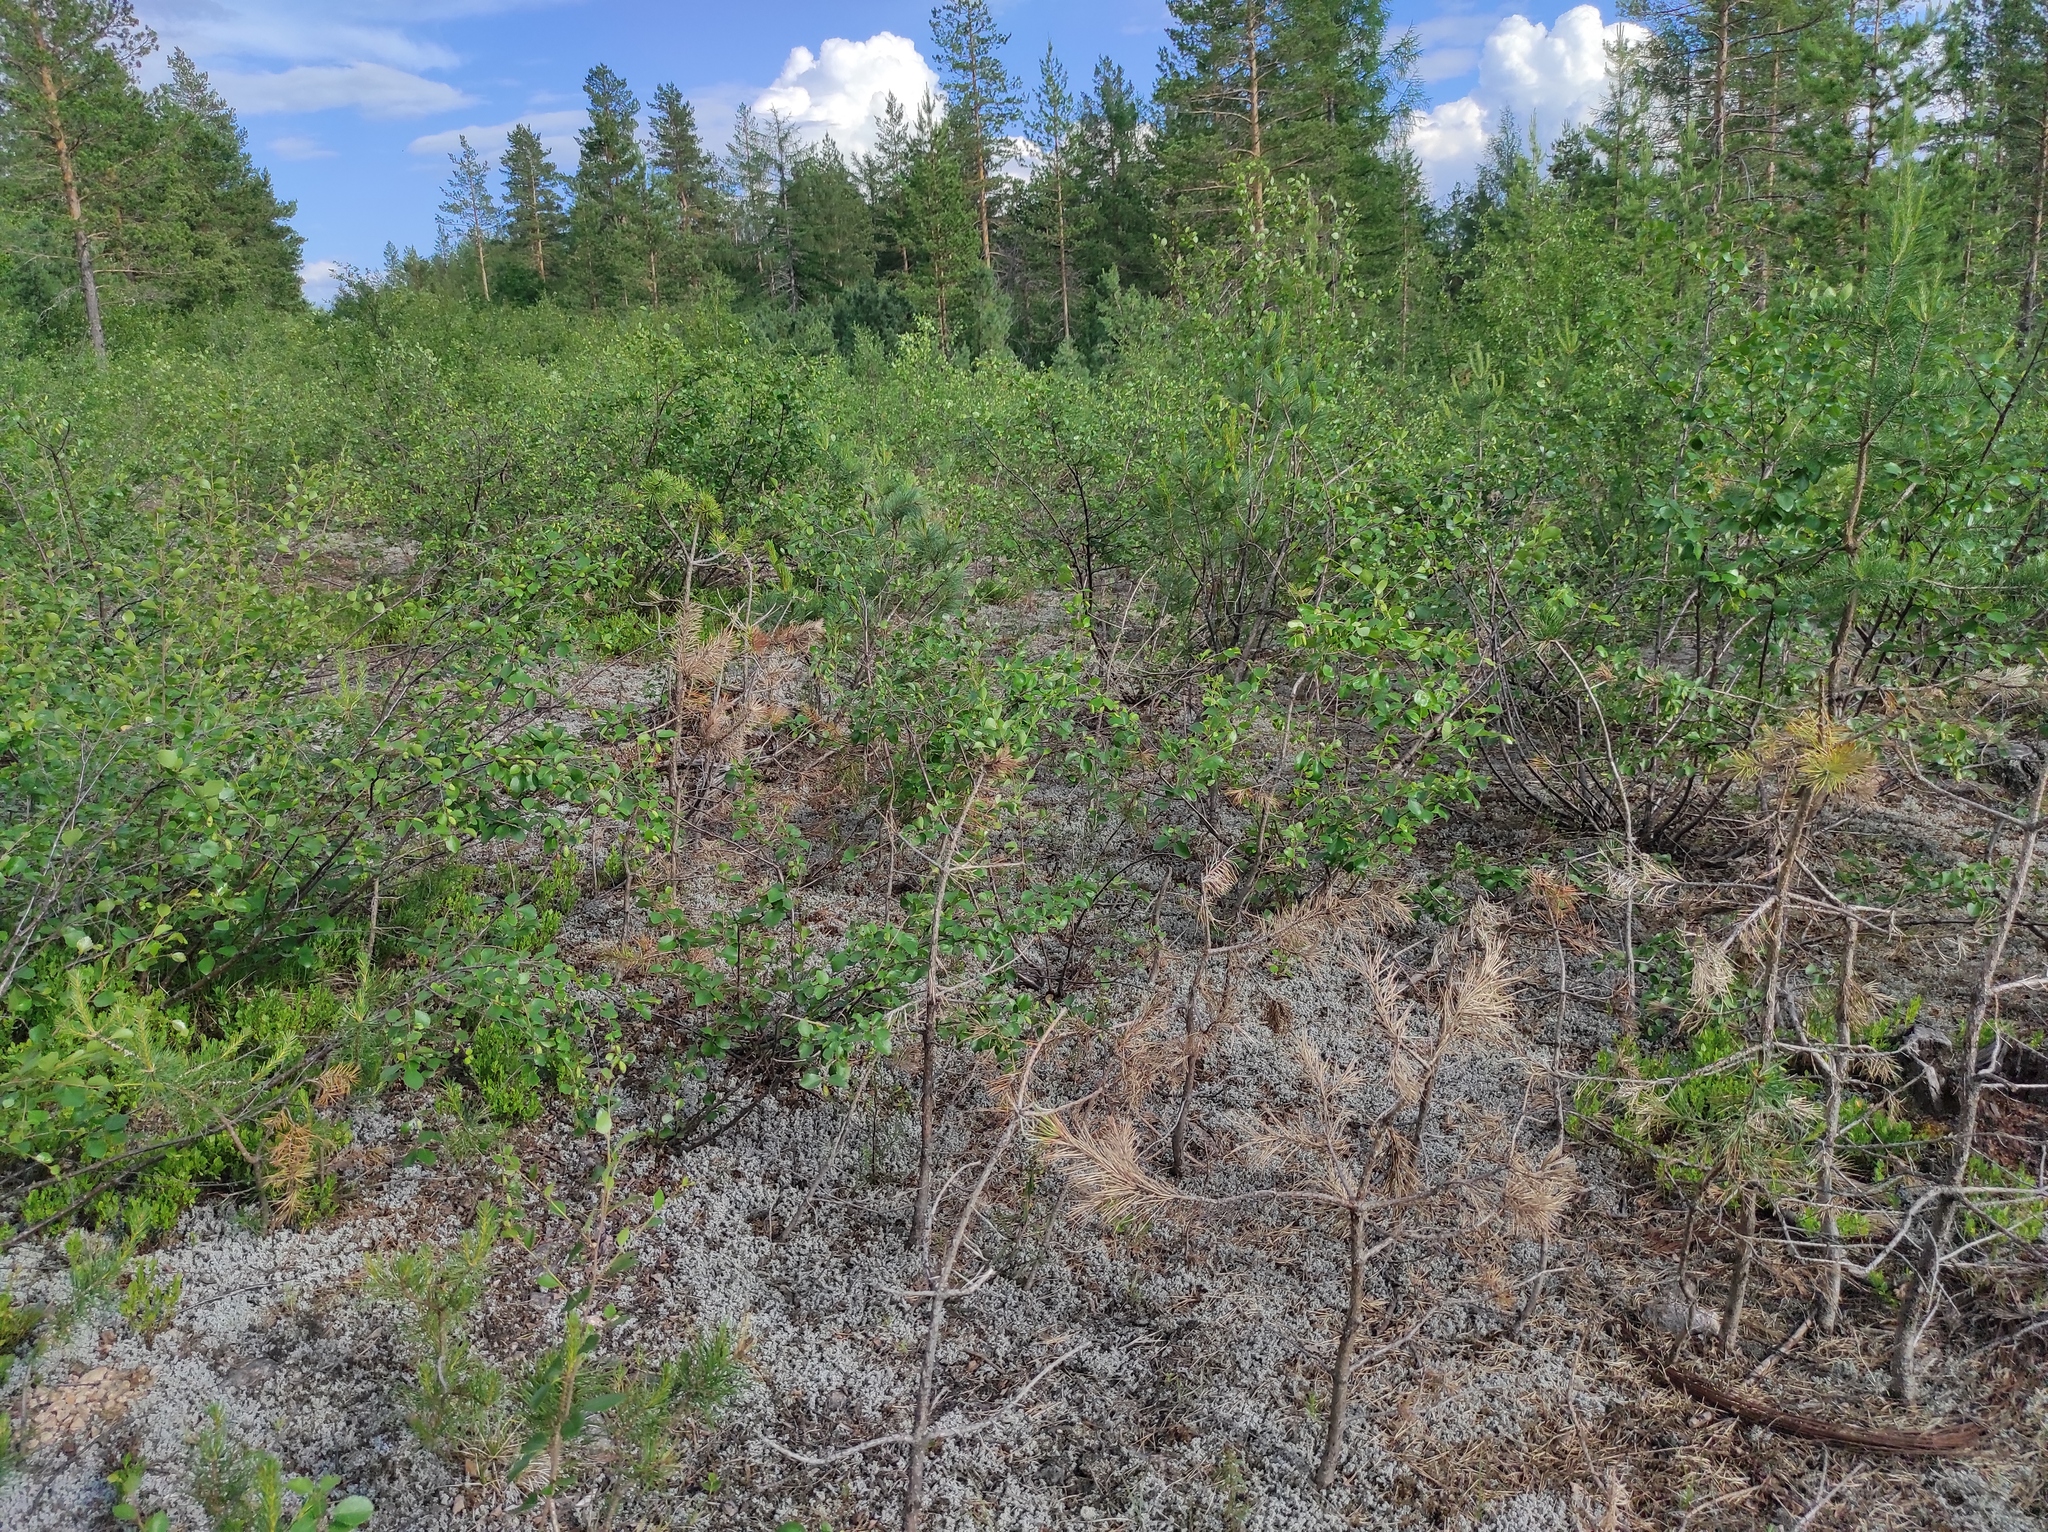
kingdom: Plantae
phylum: Tracheophyta
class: Pinopsida
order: Pinales
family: Pinaceae
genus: Pinus
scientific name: Pinus pumila
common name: Dwarf siberian pine
